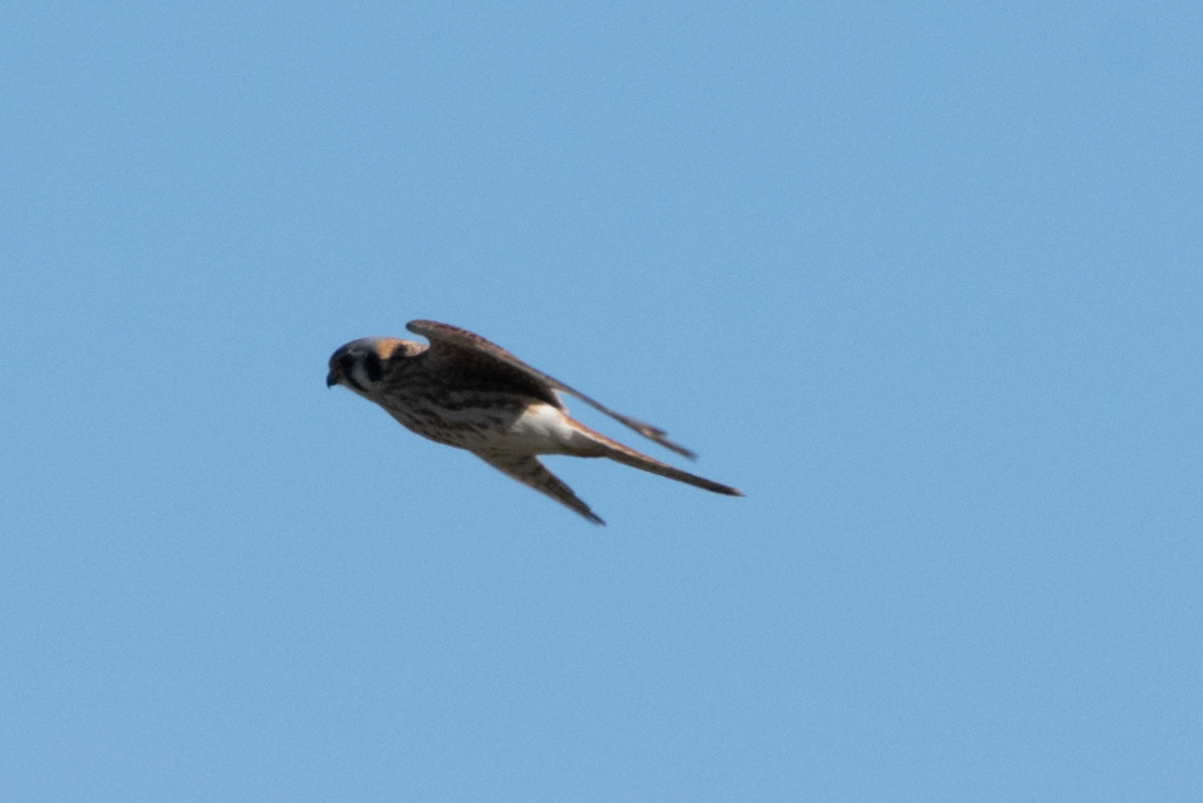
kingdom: Animalia
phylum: Chordata
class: Aves
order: Falconiformes
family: Falconidae
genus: Falco
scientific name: Falco sparverius
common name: American kestrel
